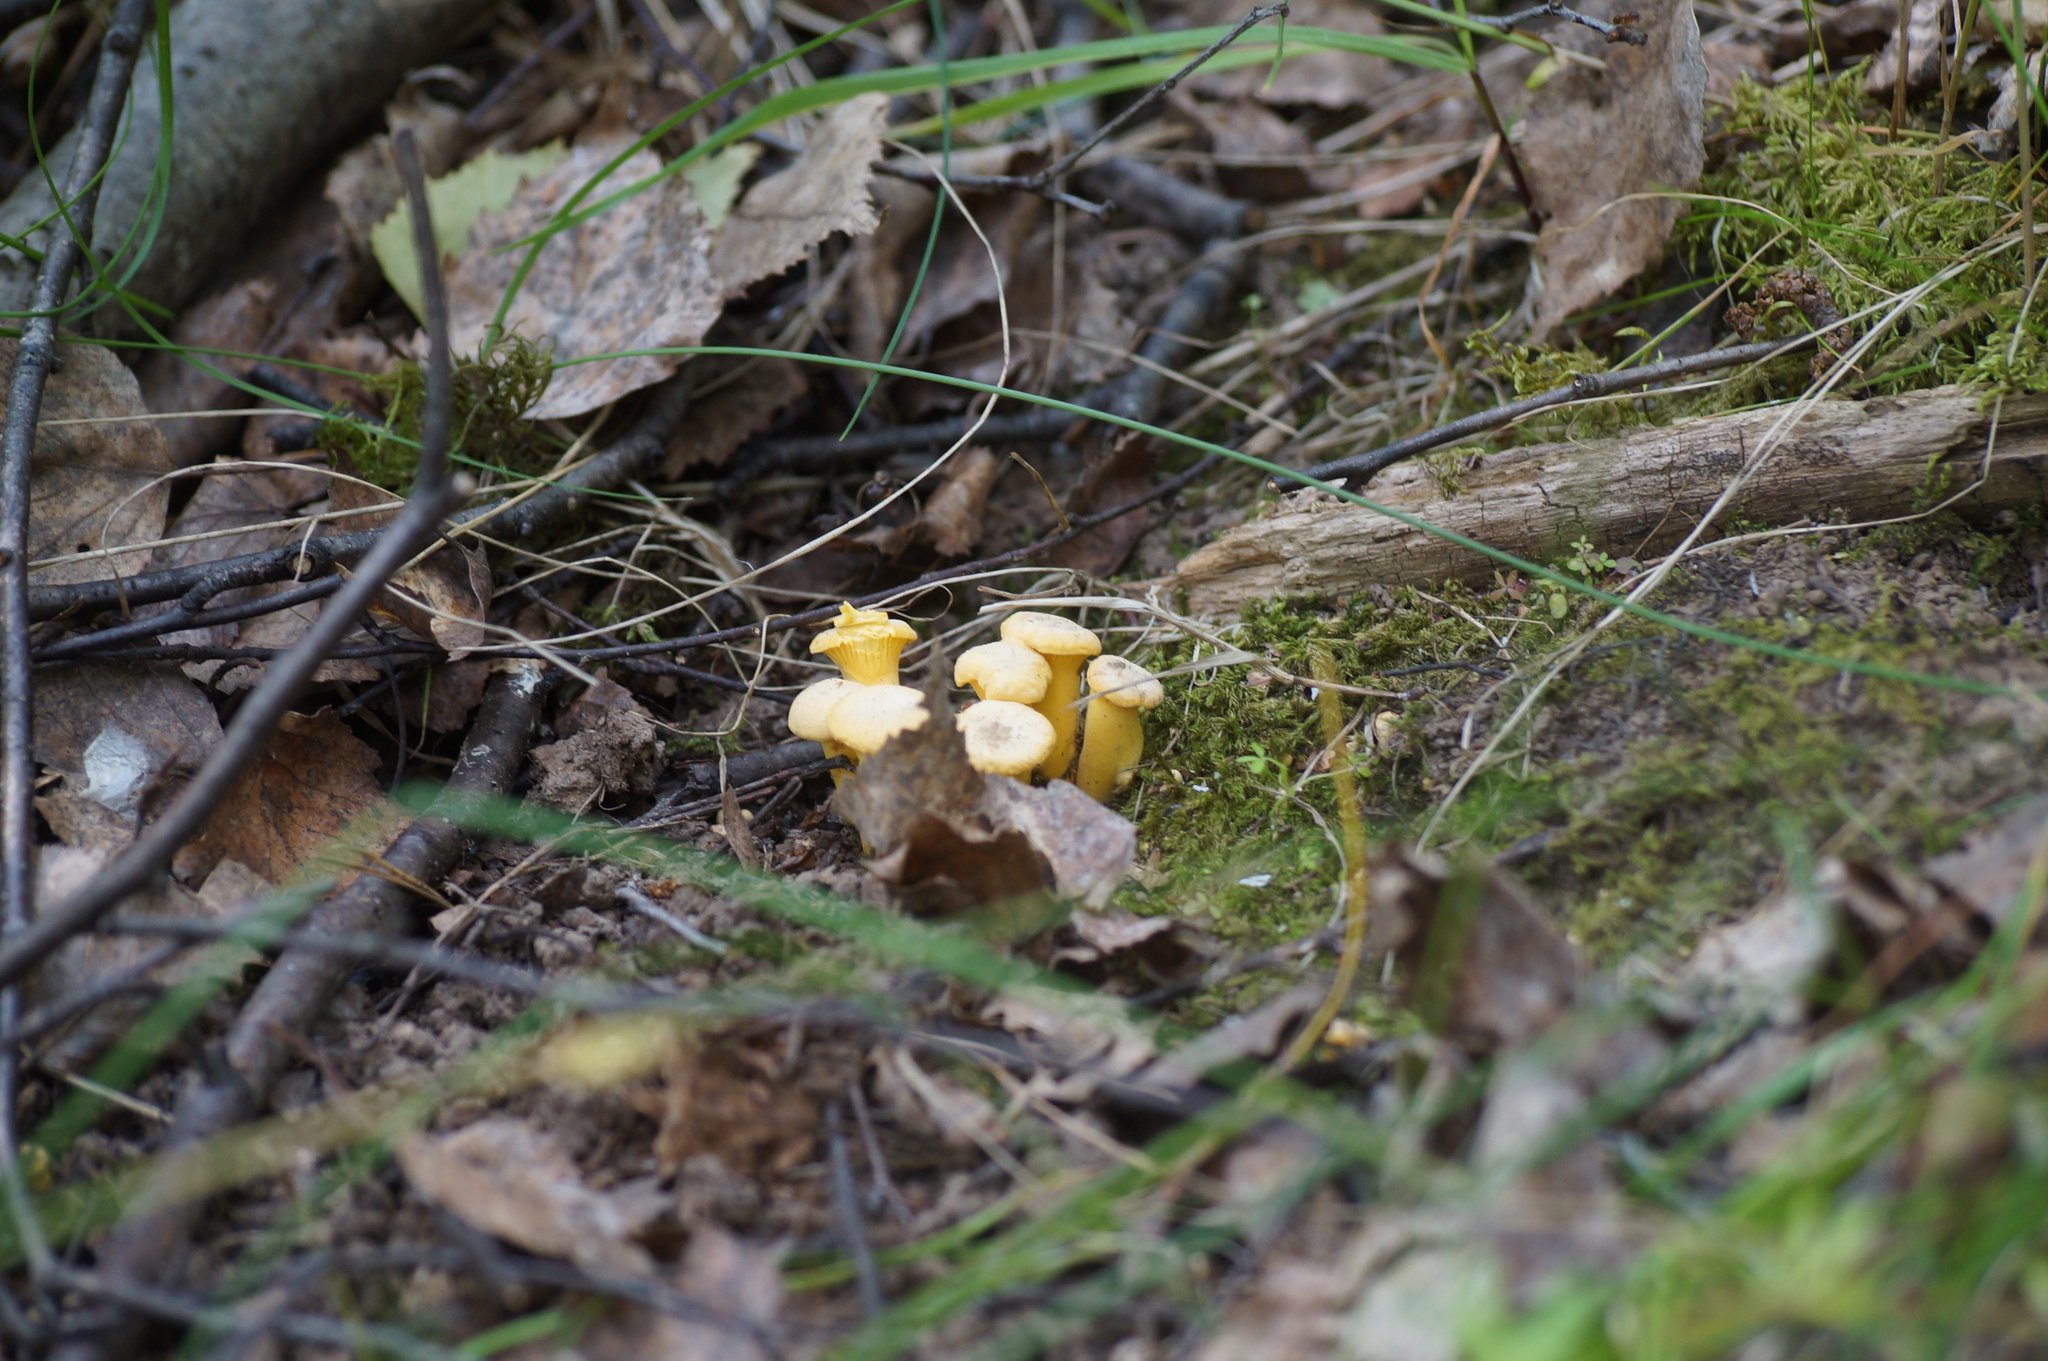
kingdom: Fungi
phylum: Basidiomycota
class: Agaricomycetes
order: Cantharellales
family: Hydnaceae
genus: Cantharellus
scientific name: Cantharellus cibarius
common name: Chanterelle
